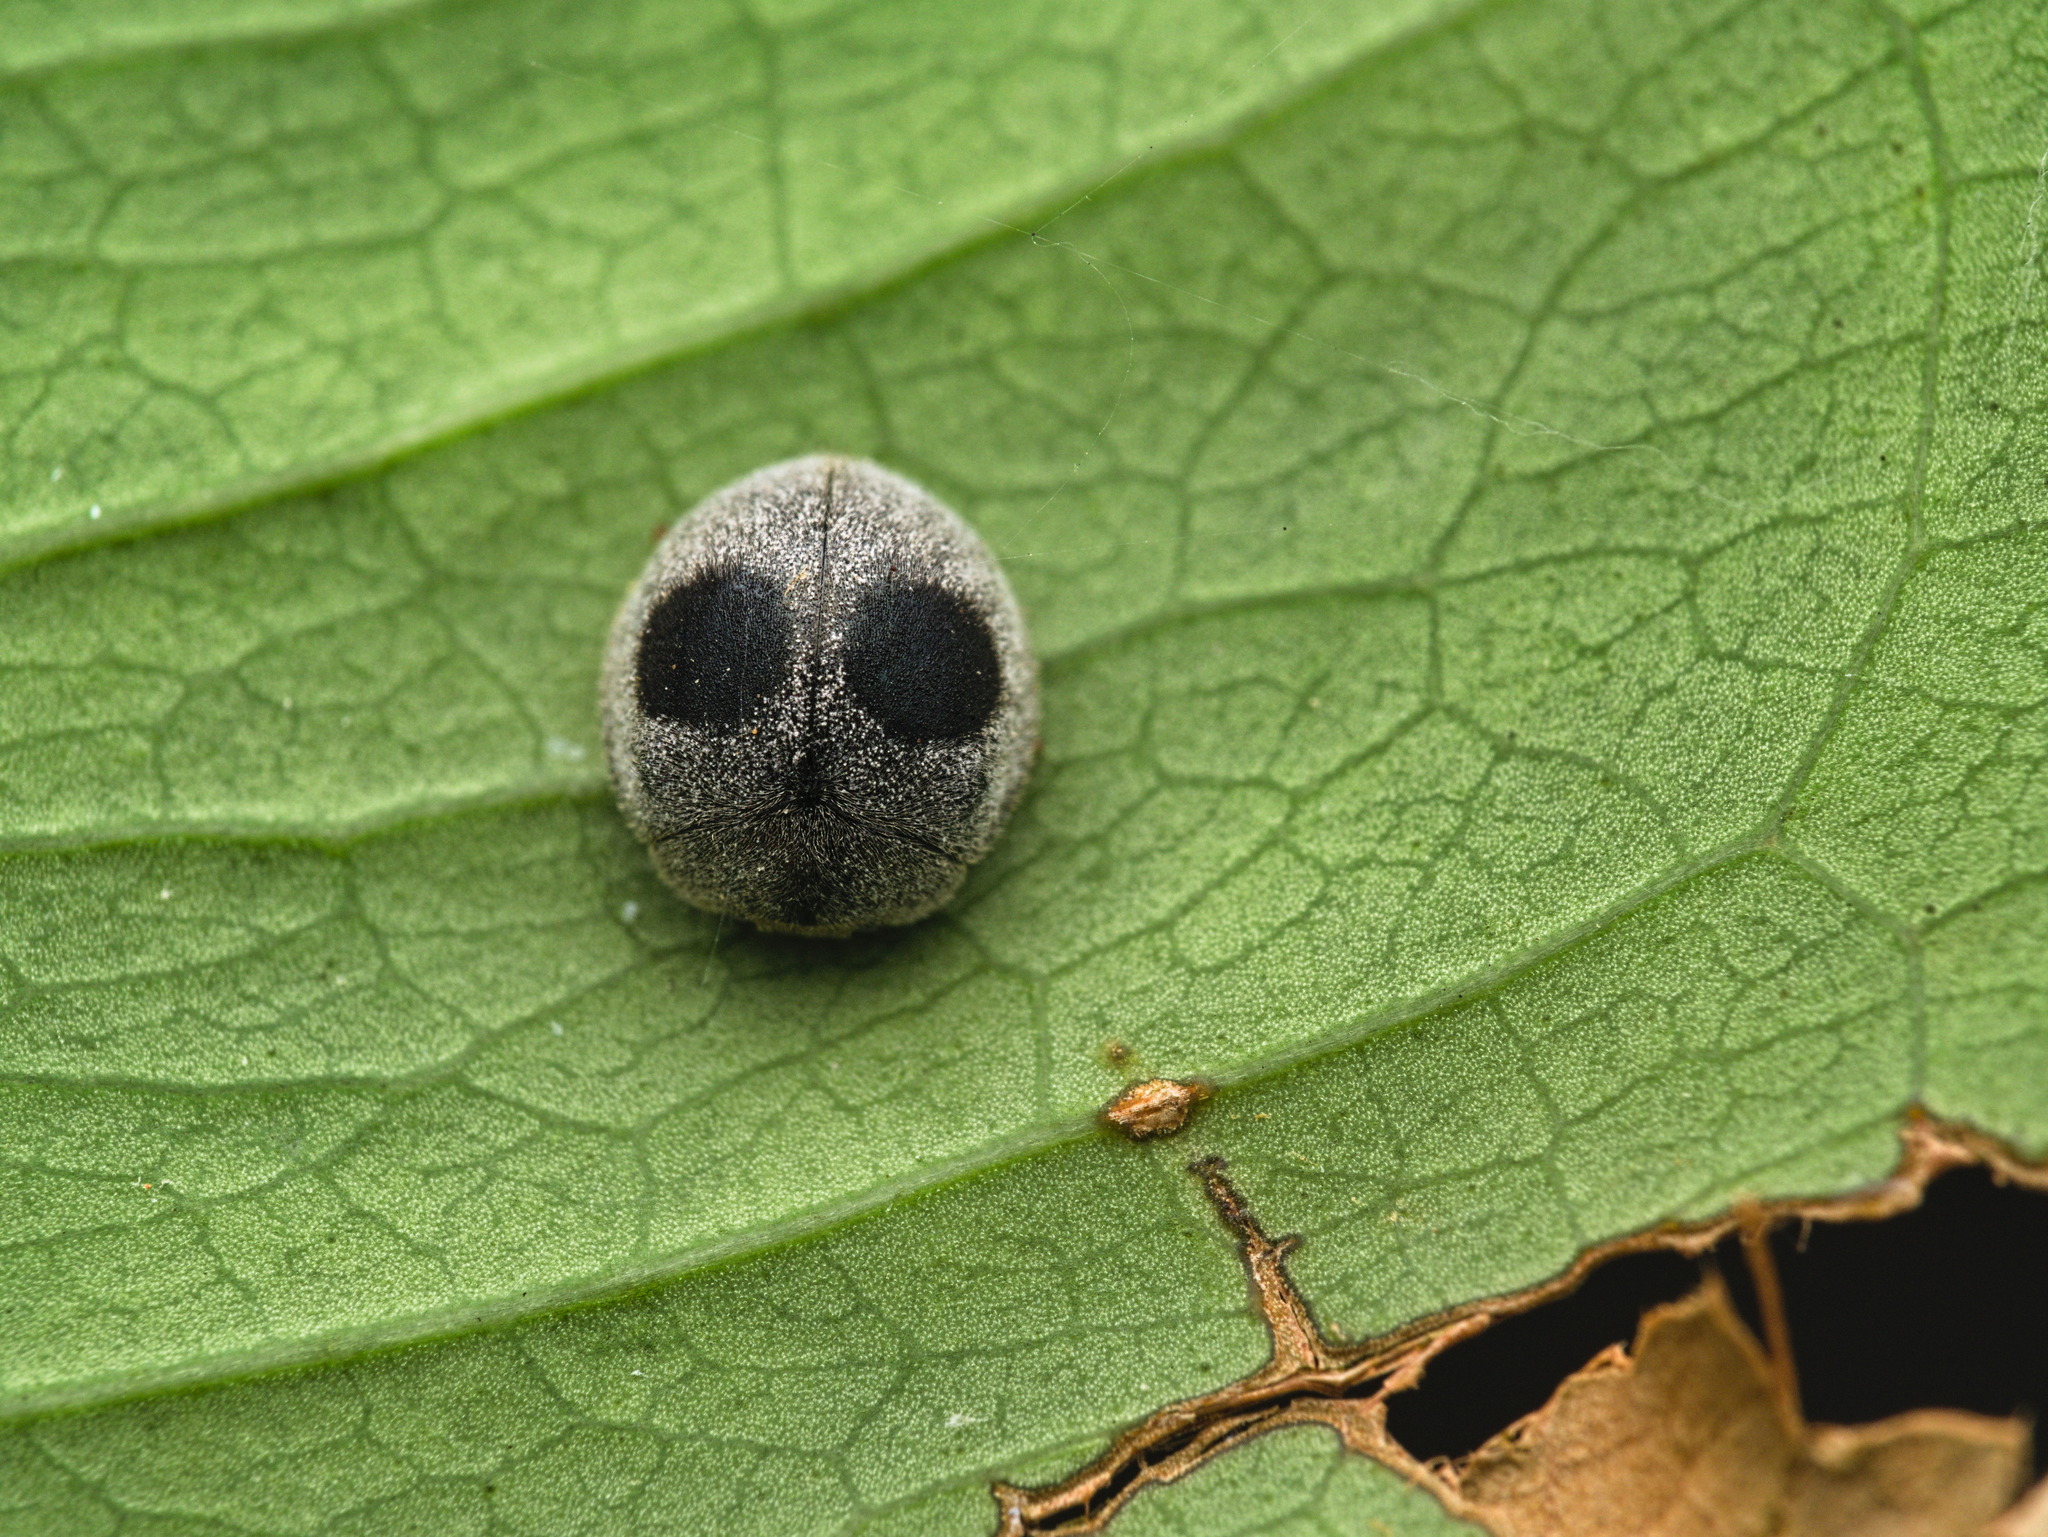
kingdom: Animalia
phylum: Arthropoda
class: Insecta
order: Coleoptera
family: Coccinellidae
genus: Azya
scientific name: Azya orbigera
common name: Ladybird beetle
